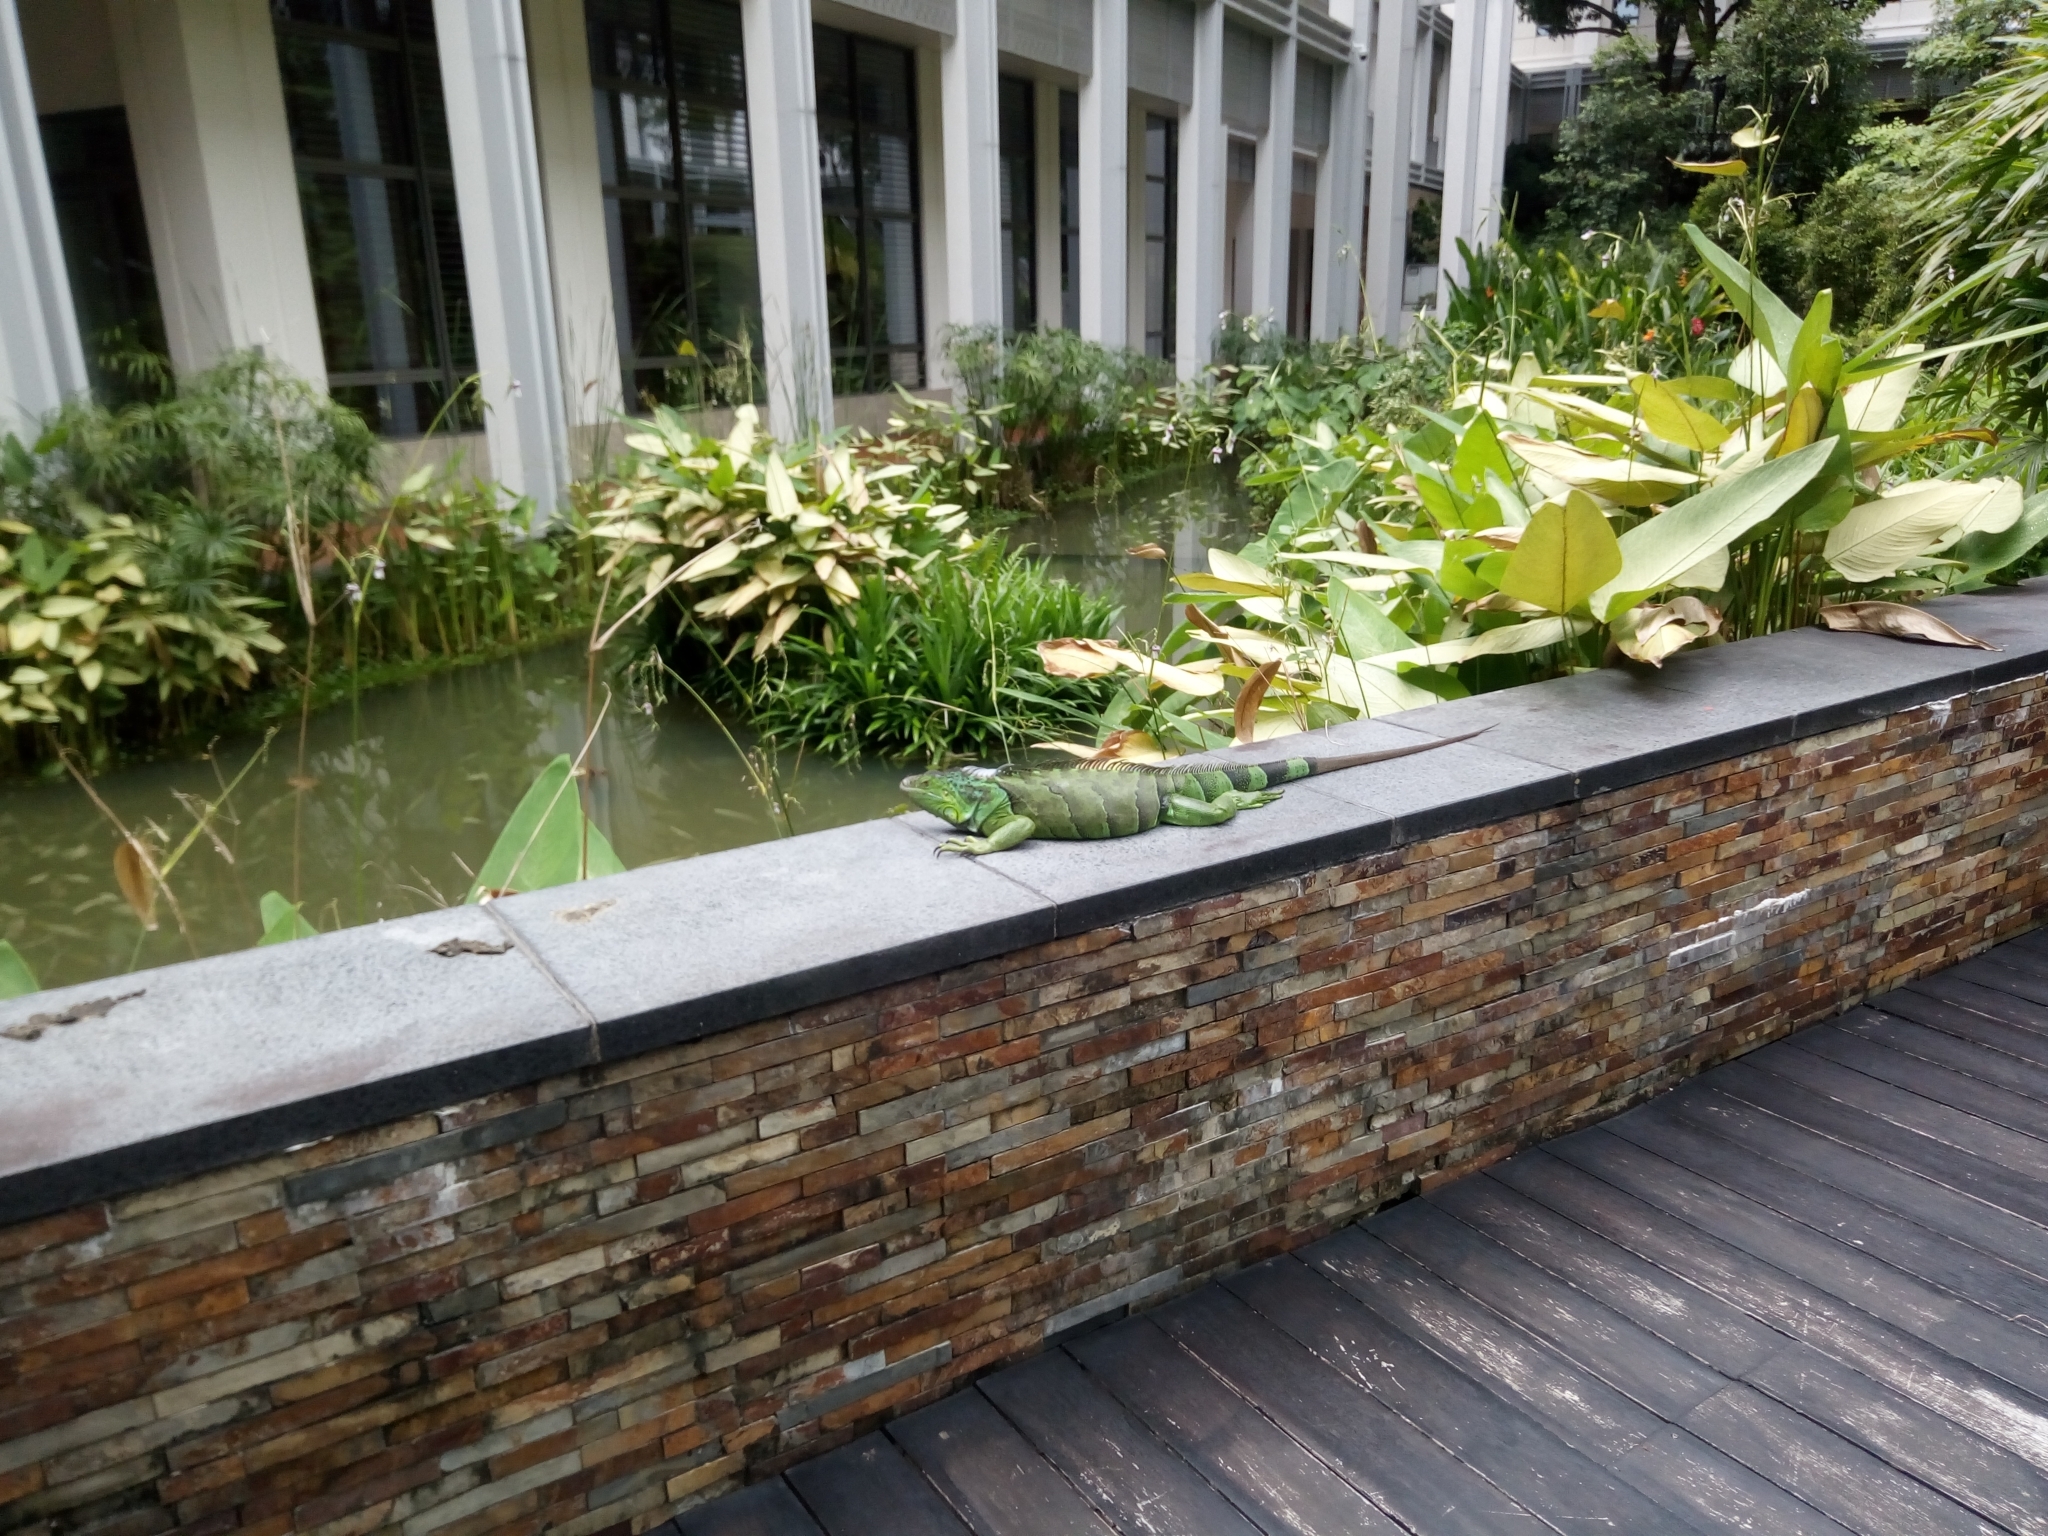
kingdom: Animalia
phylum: Chordata
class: Squamata
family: Iguanidae
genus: Iguana
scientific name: Iguana iguana
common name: Green iguana
